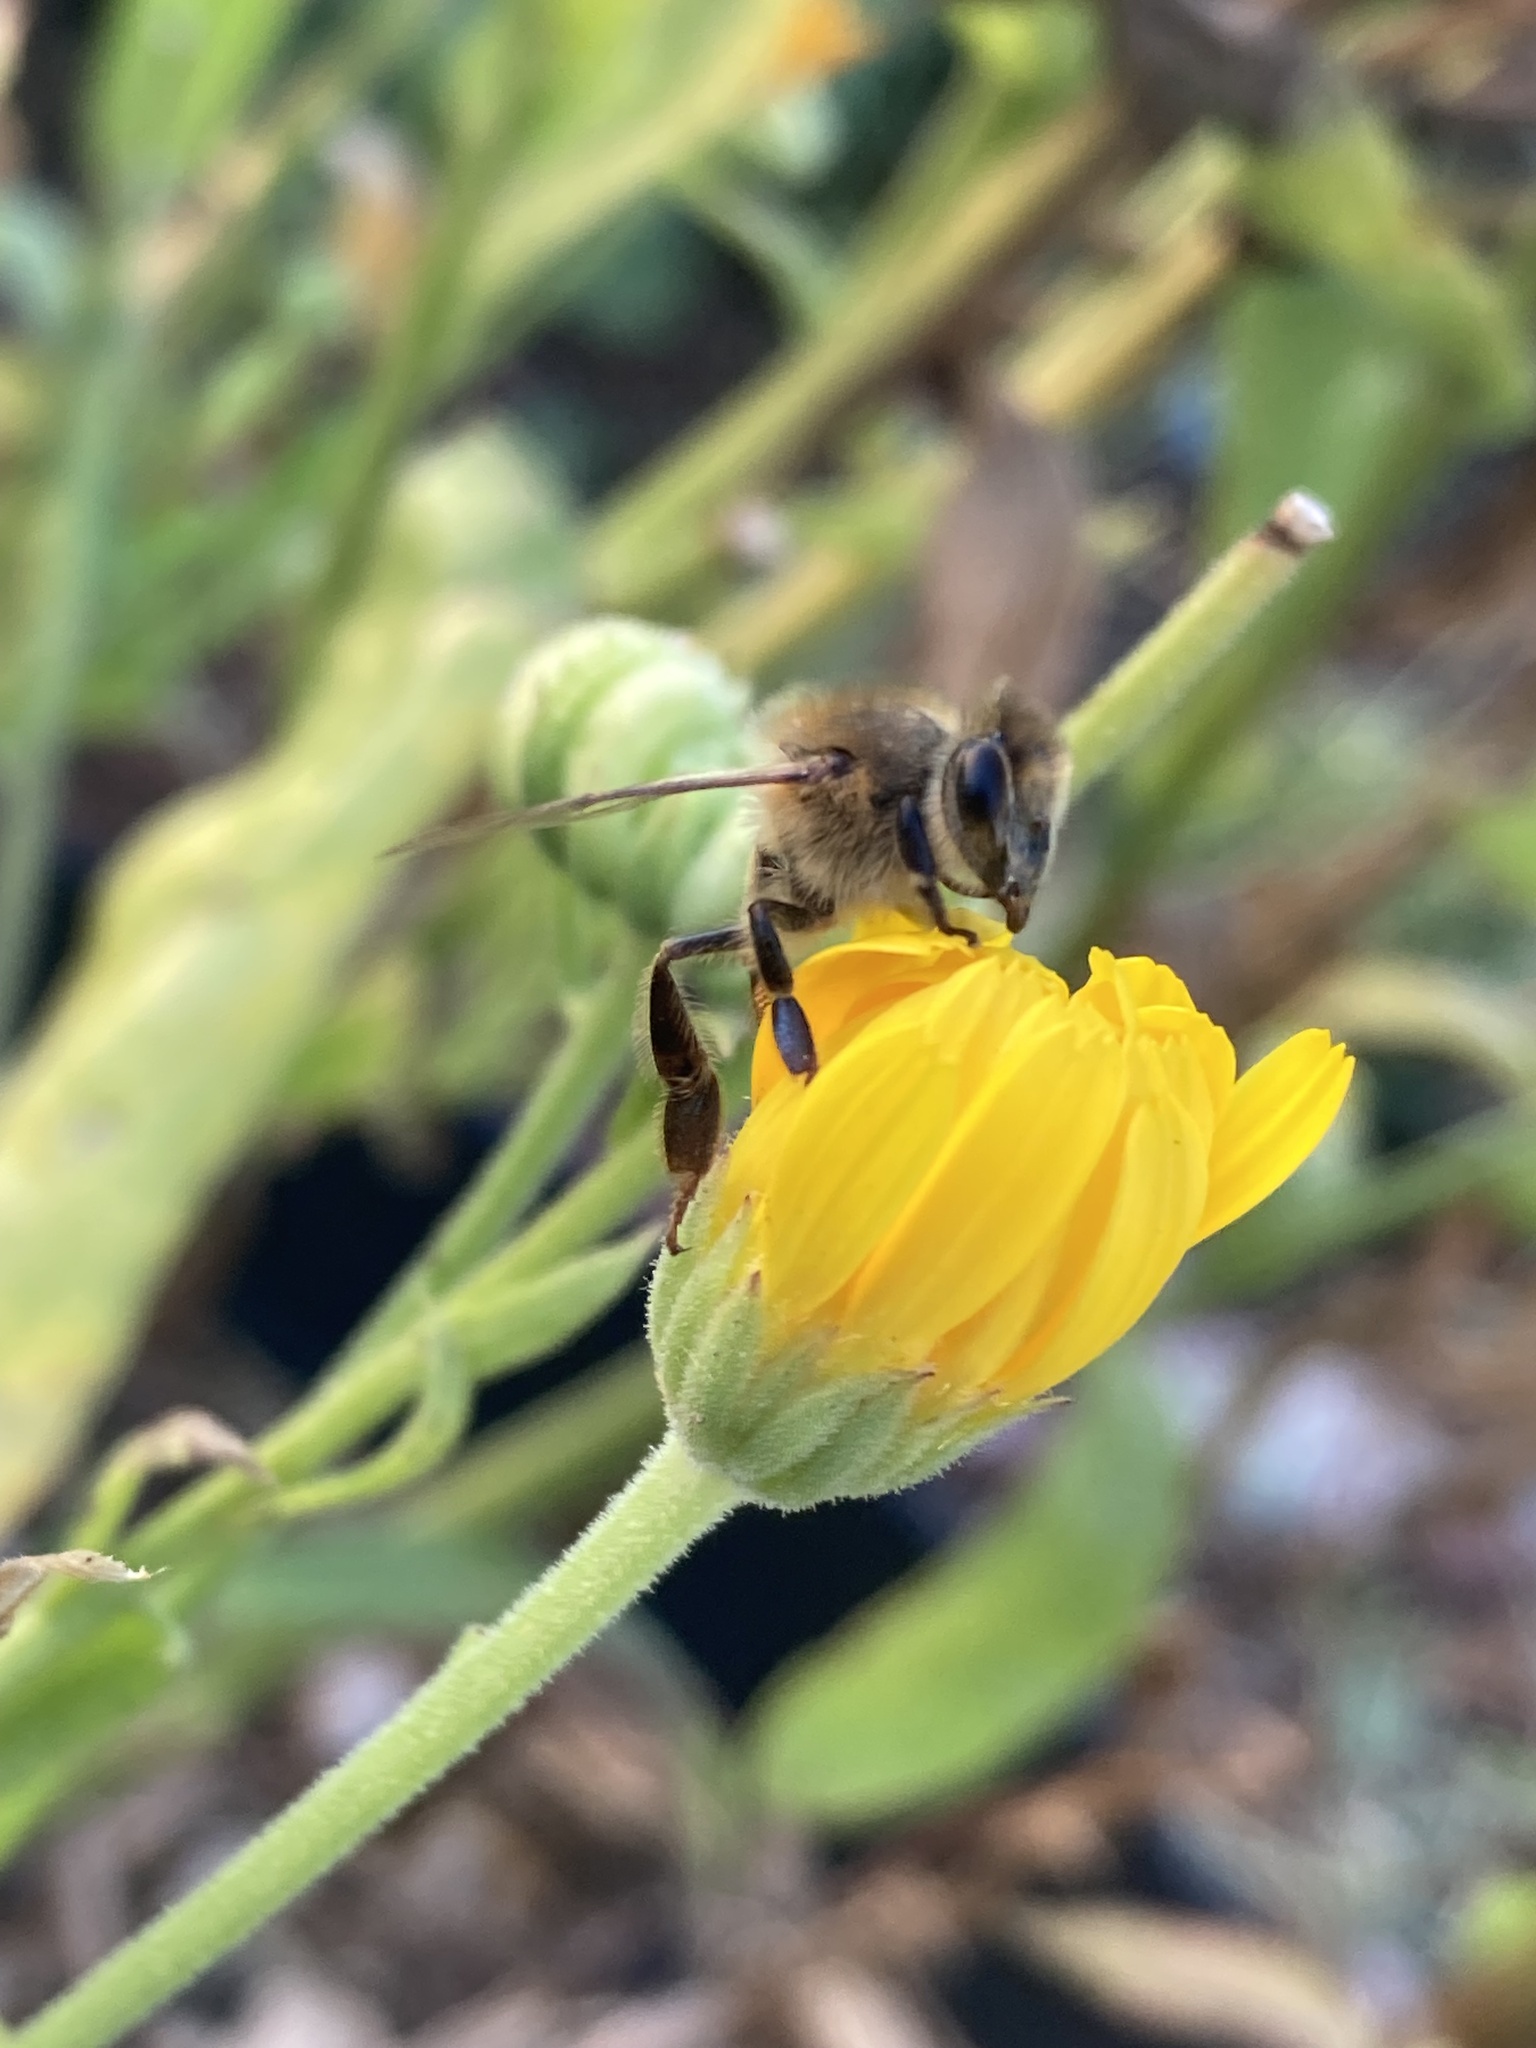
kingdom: Animalia
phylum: Arthropoda
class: Insecta
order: Hymenoptera
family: Apidae
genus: Apis
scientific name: Apis mellifera
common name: Honey bee
